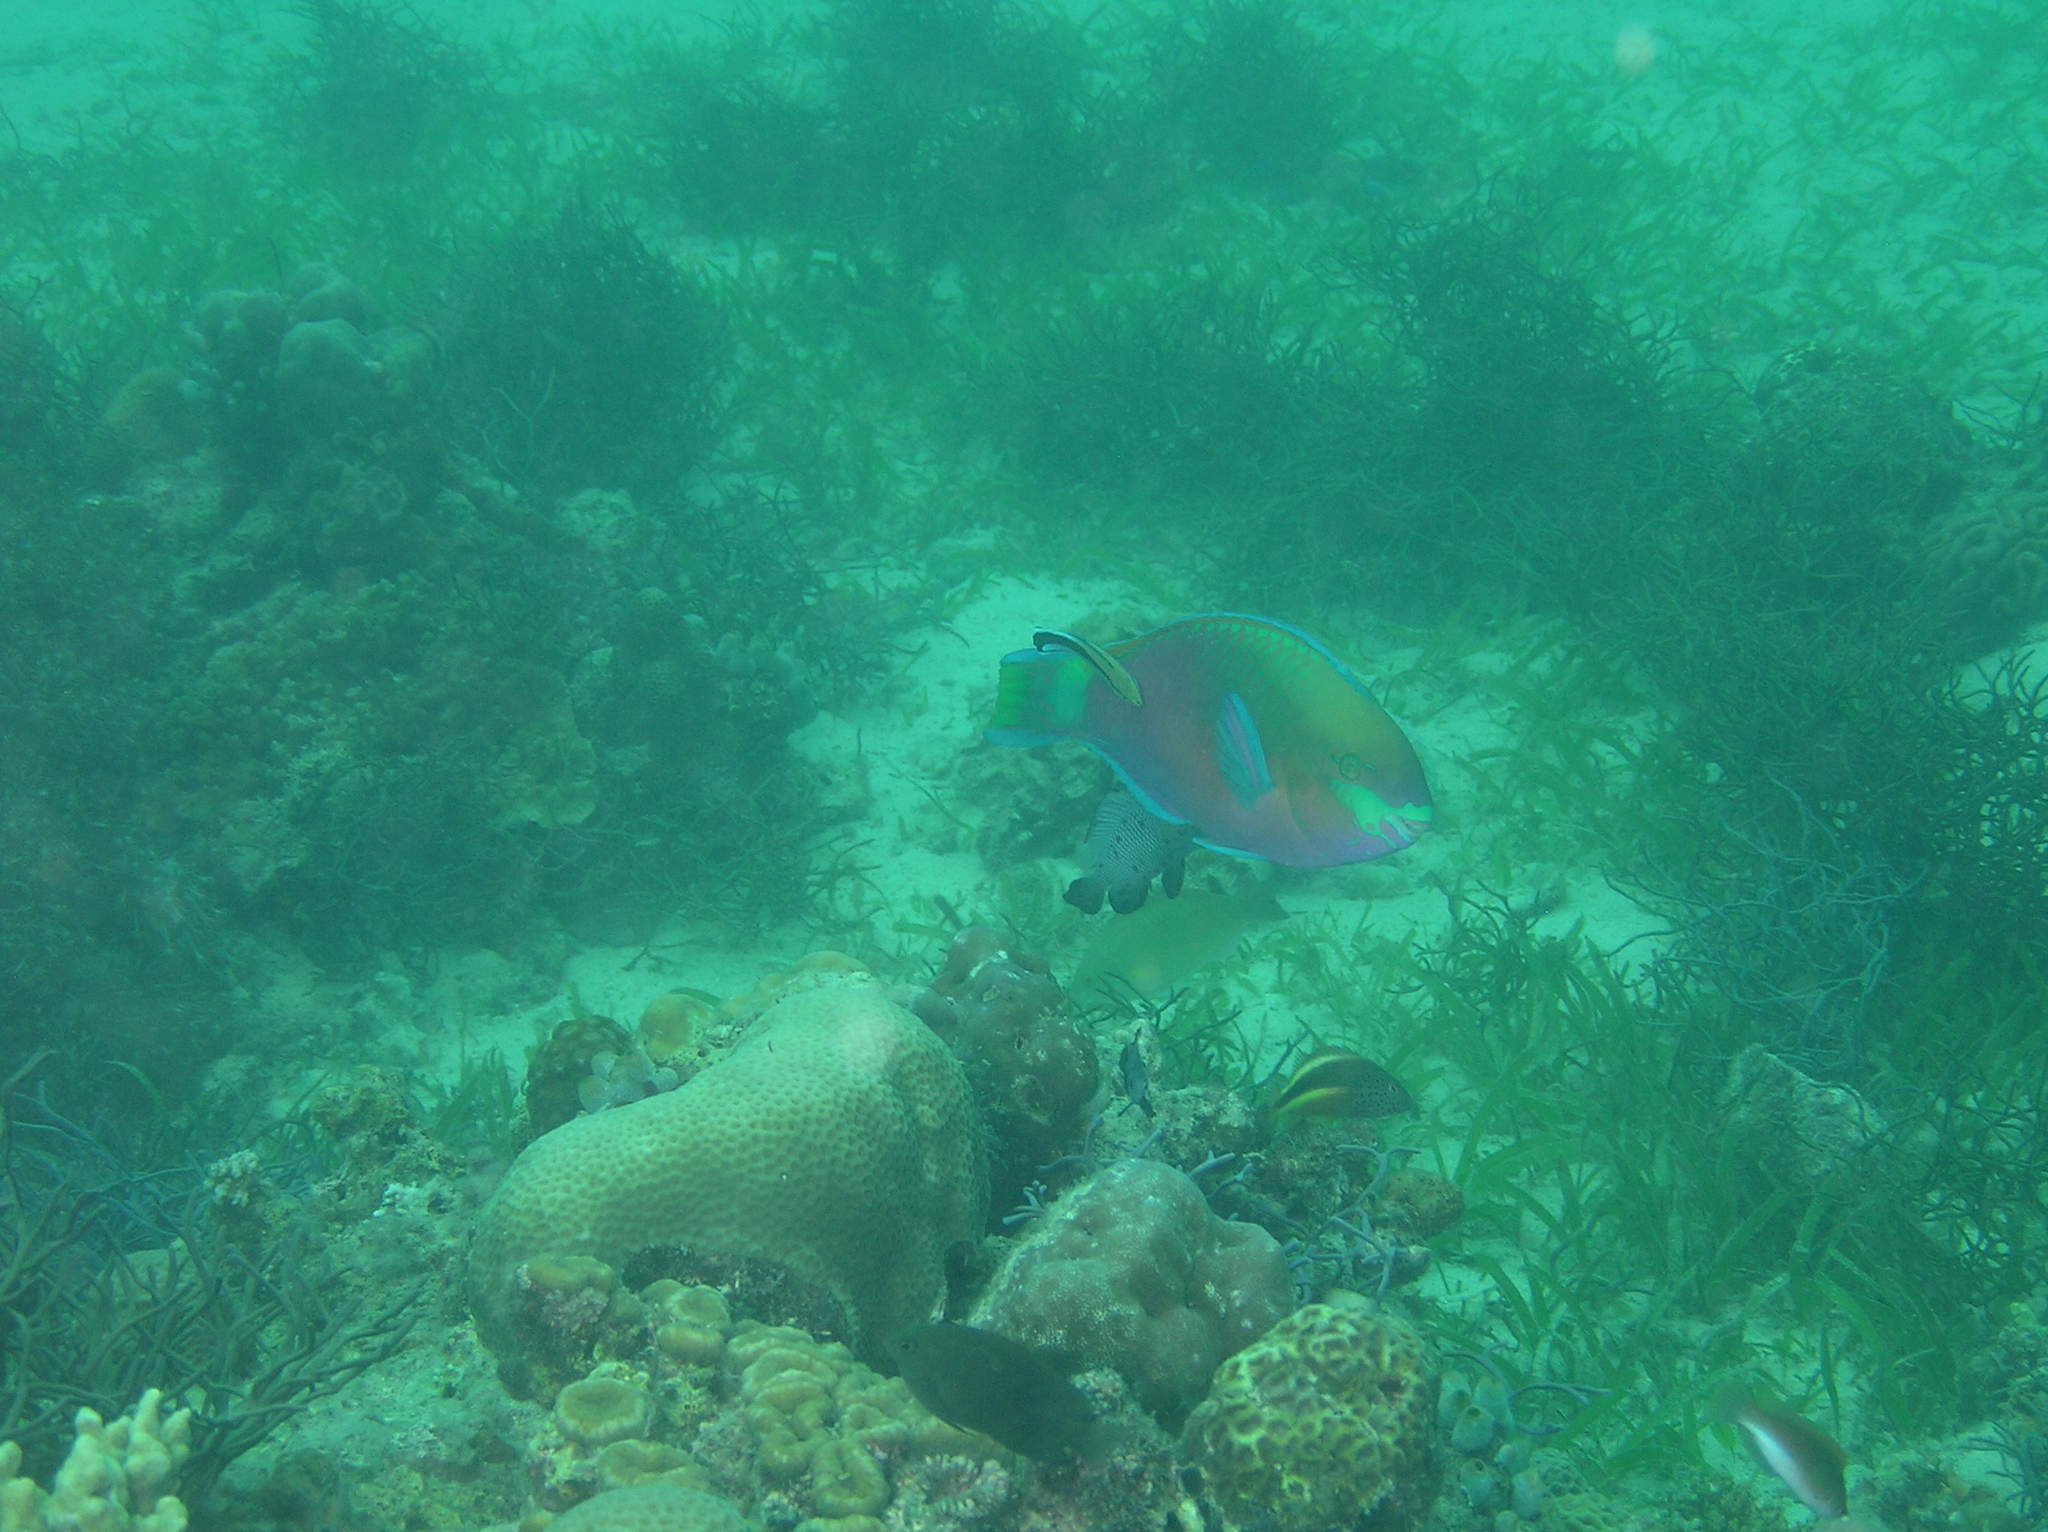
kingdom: Animalia
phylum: Chordata
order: Perciformes
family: Scaridae
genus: Scarus
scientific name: Scarus quoyi
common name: Quoy's parrotfish
